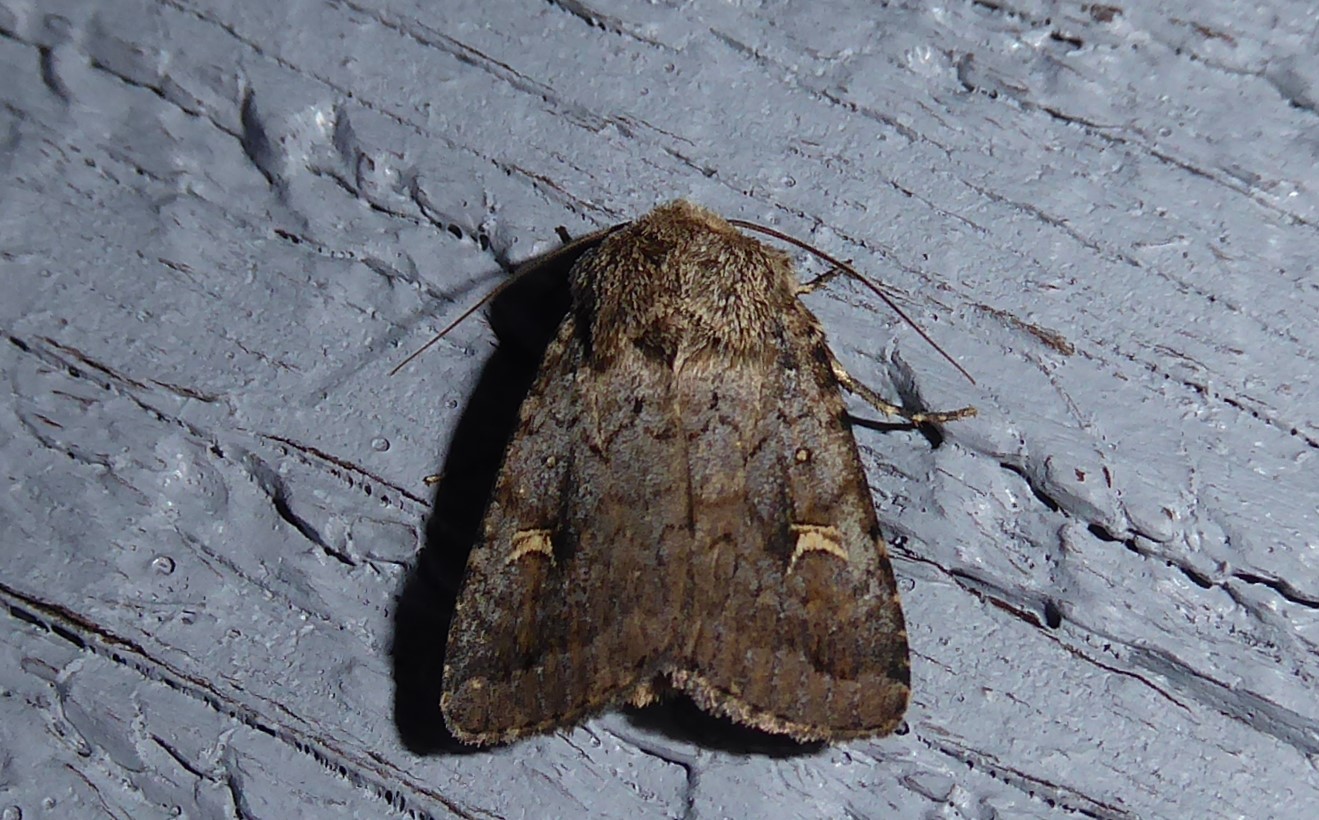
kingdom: Animalia
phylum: Arthropoda
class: Insecta
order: Lepidoptera
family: Noctuidae
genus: Proteuxoa
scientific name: Proteuxoa tetronycha
